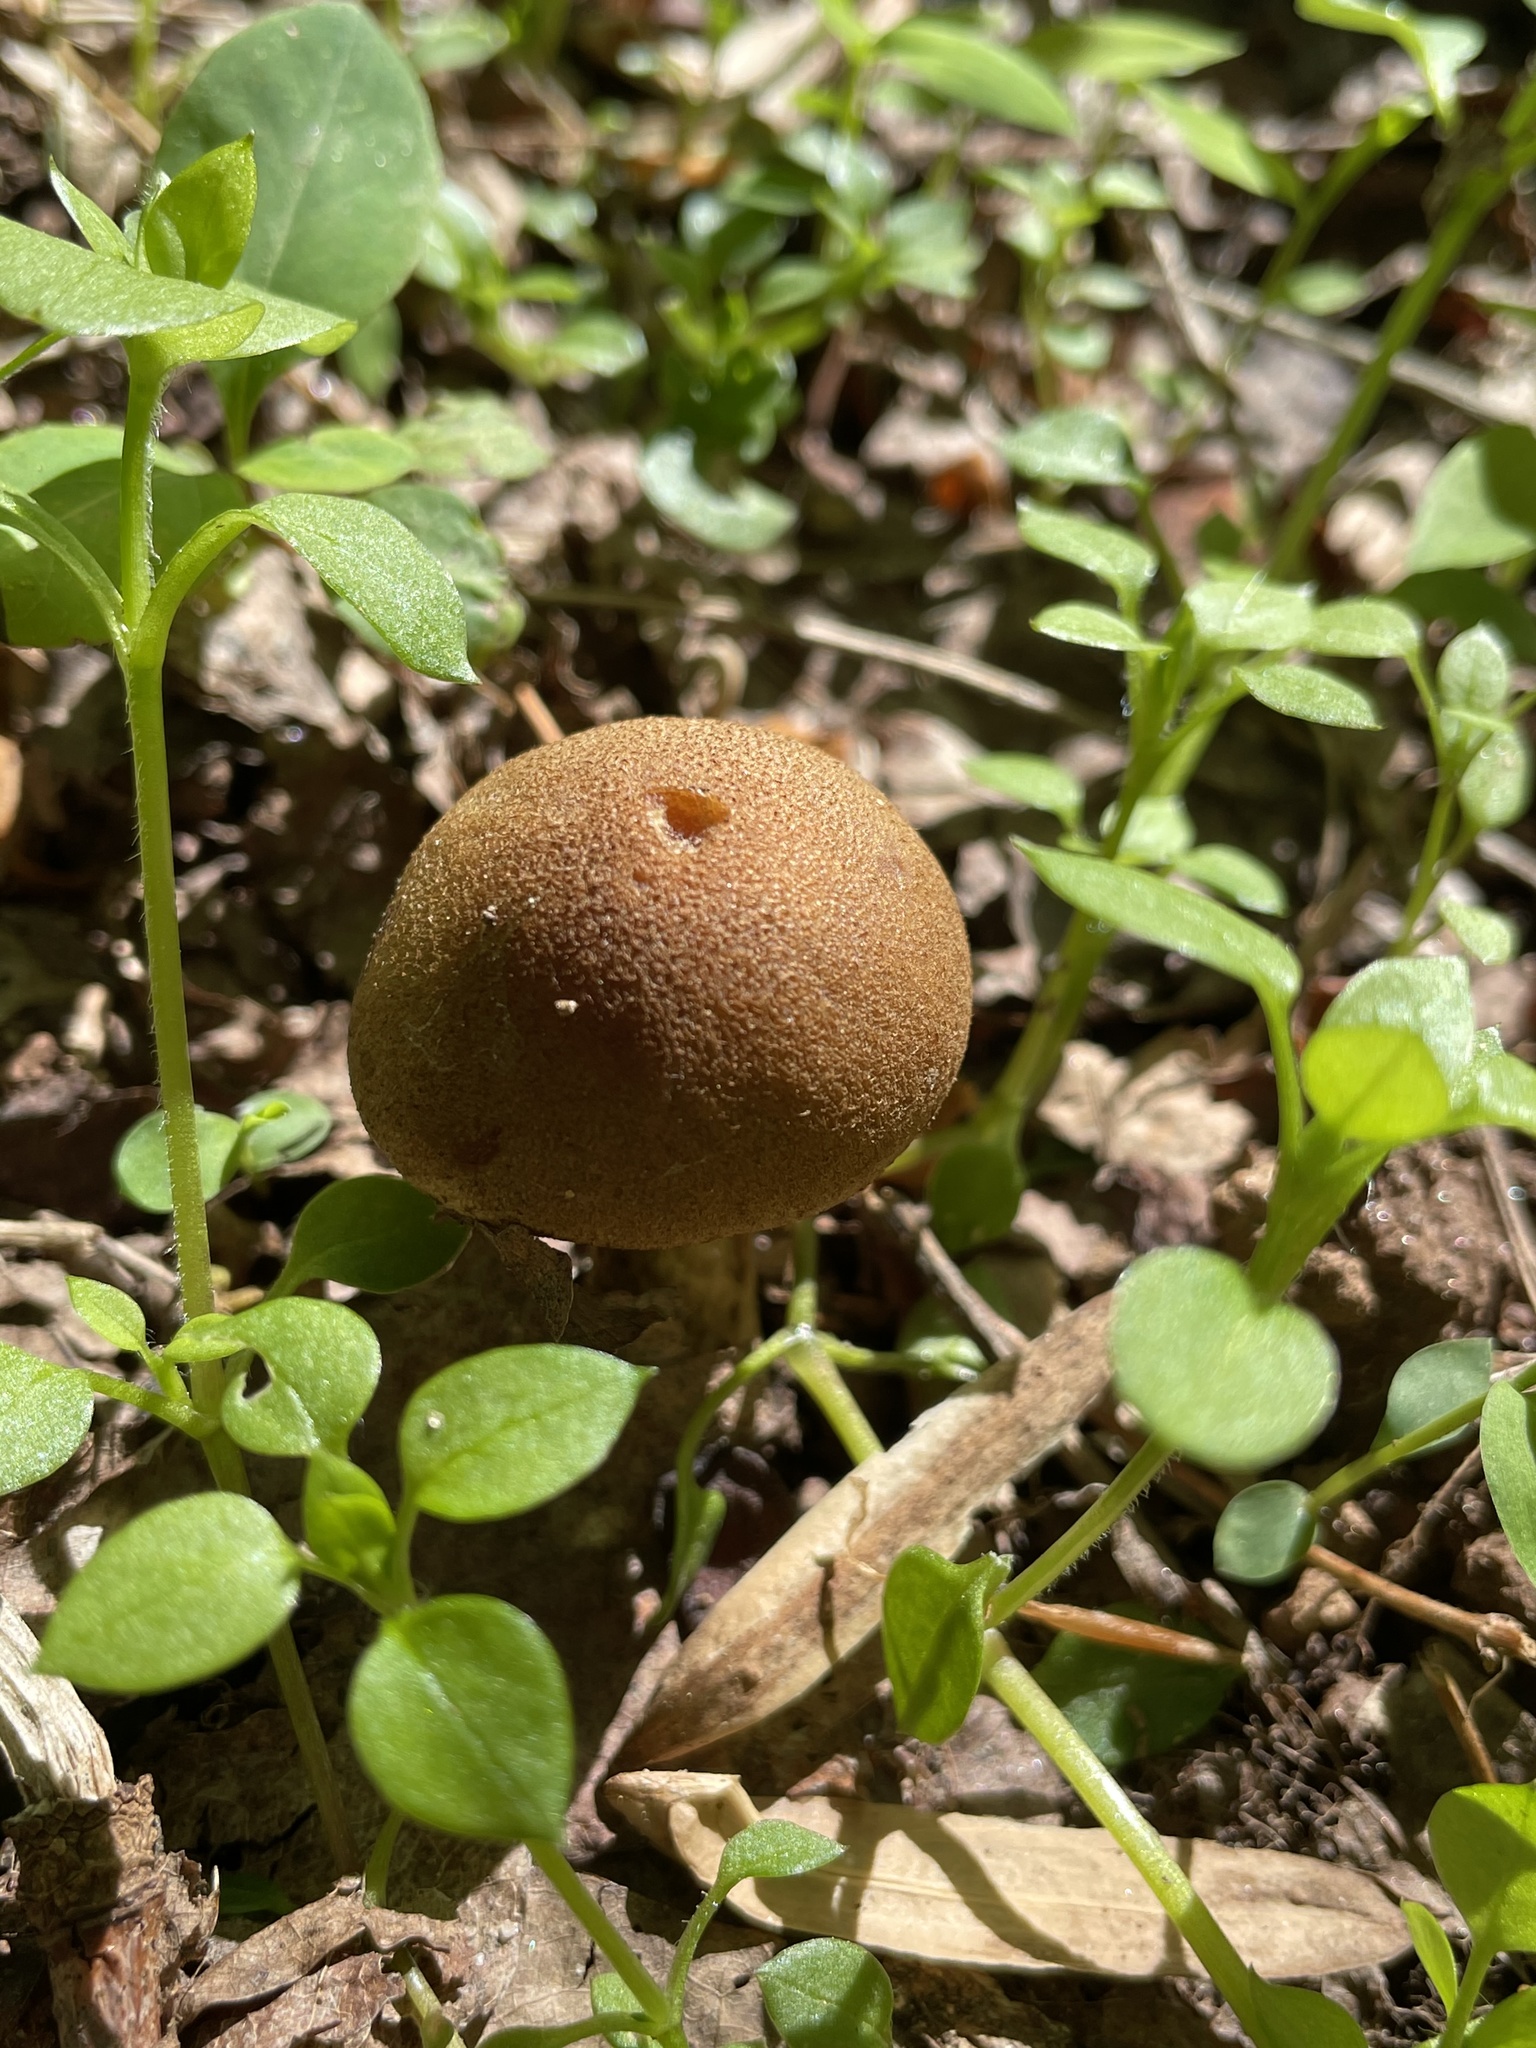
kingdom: Fungi
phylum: Basidiomycota
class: Agaricomycetes
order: Agaricales
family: Psathyrellaceae
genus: Lacrymaria
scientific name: Lacrymaria lacrymabunda
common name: Weeping widow
